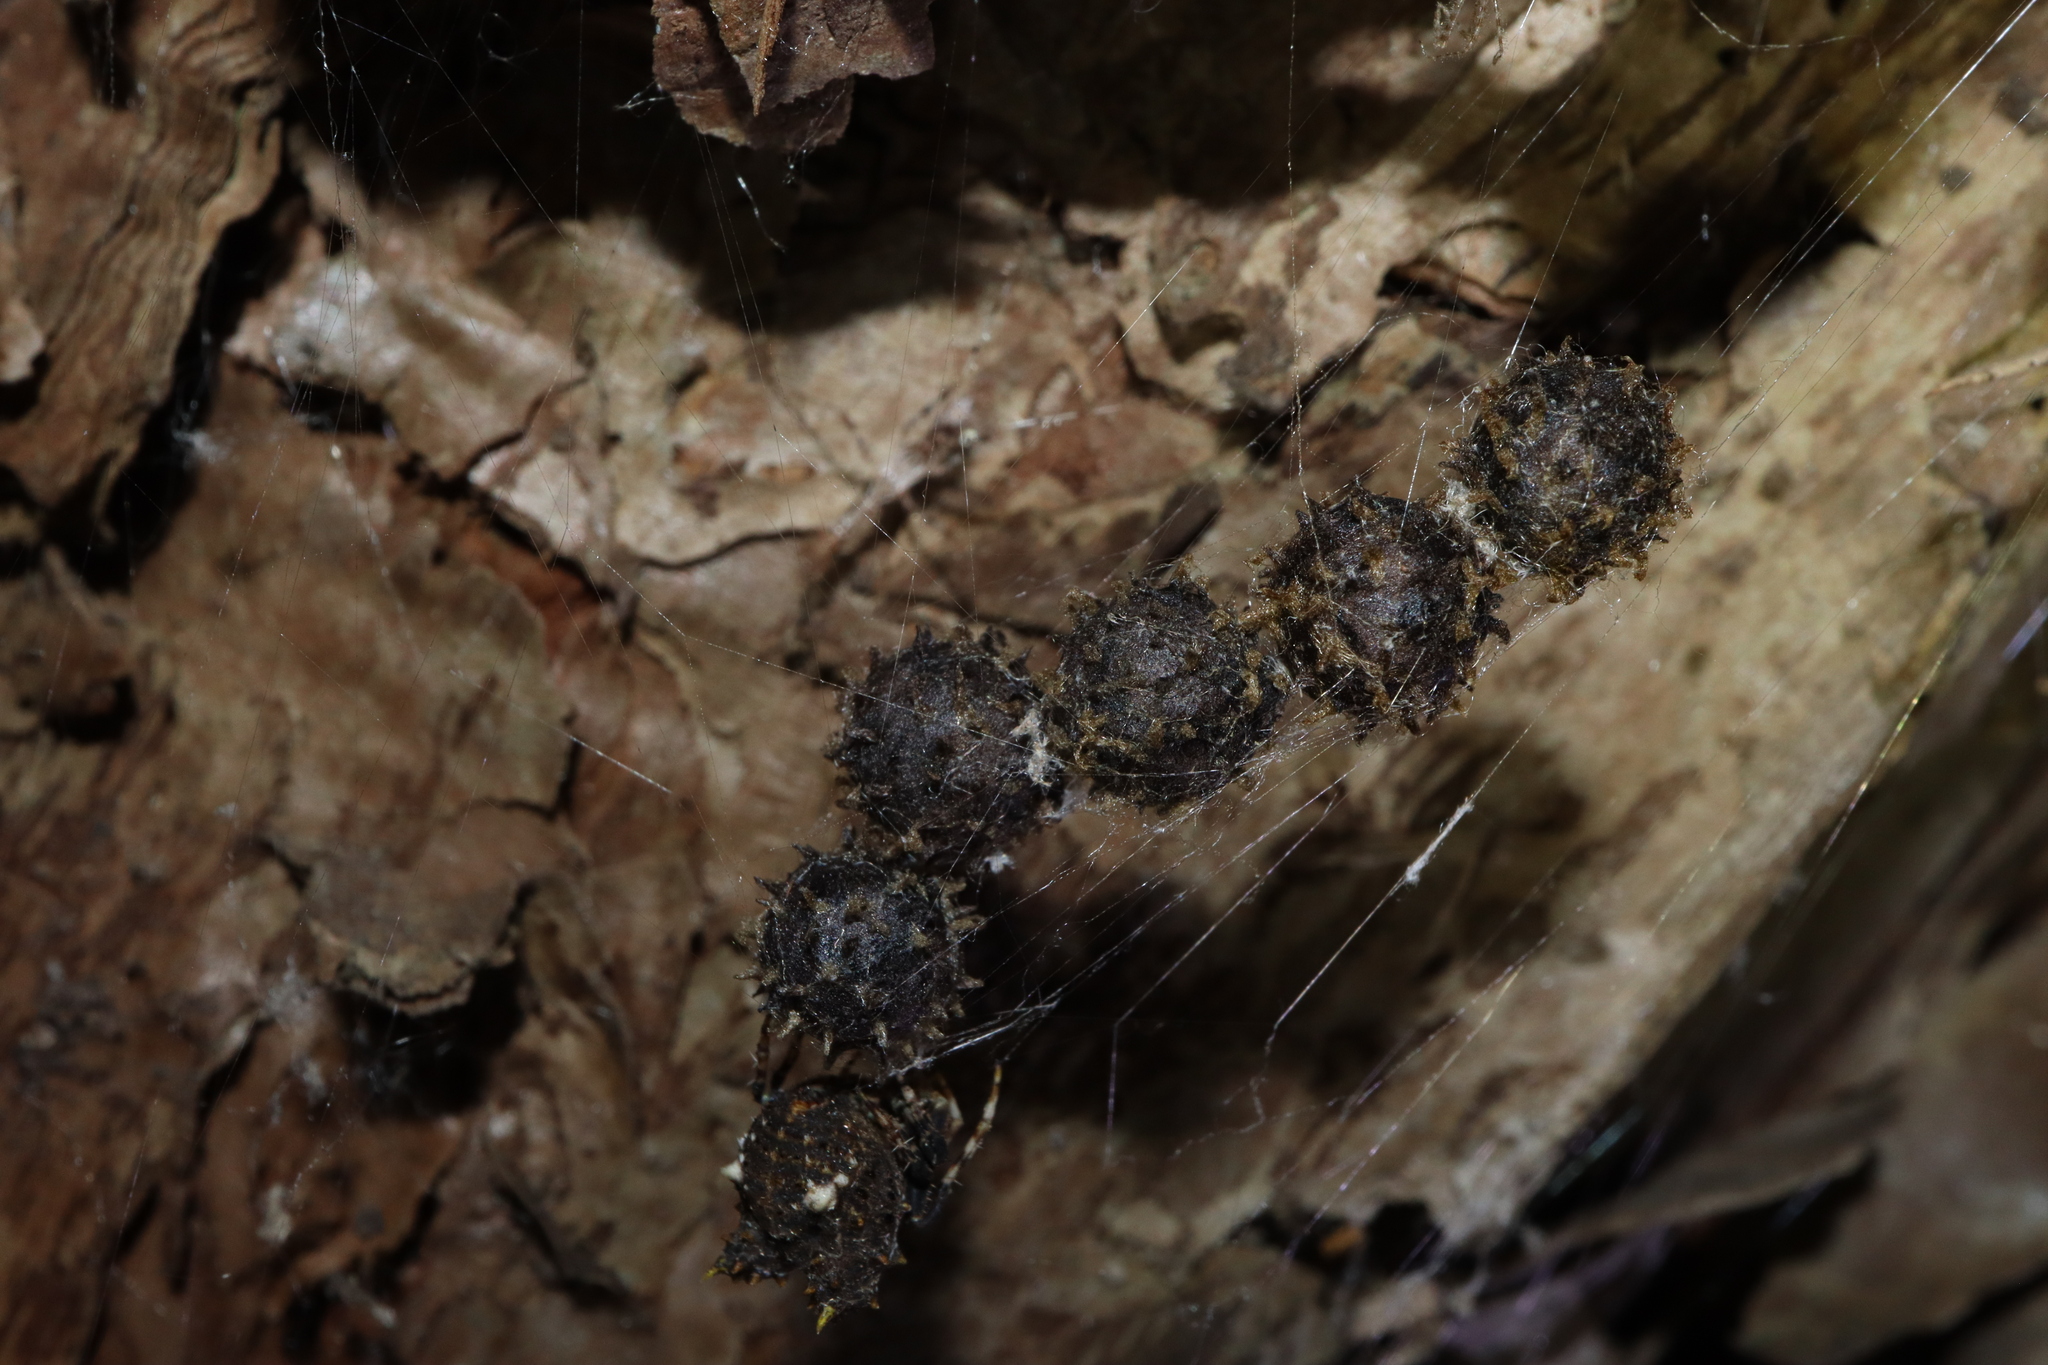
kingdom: Animalia
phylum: Arthropoda
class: Arachnida
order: Araneae
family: Araneidae
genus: Celaenia
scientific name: Celaenia calotoides
